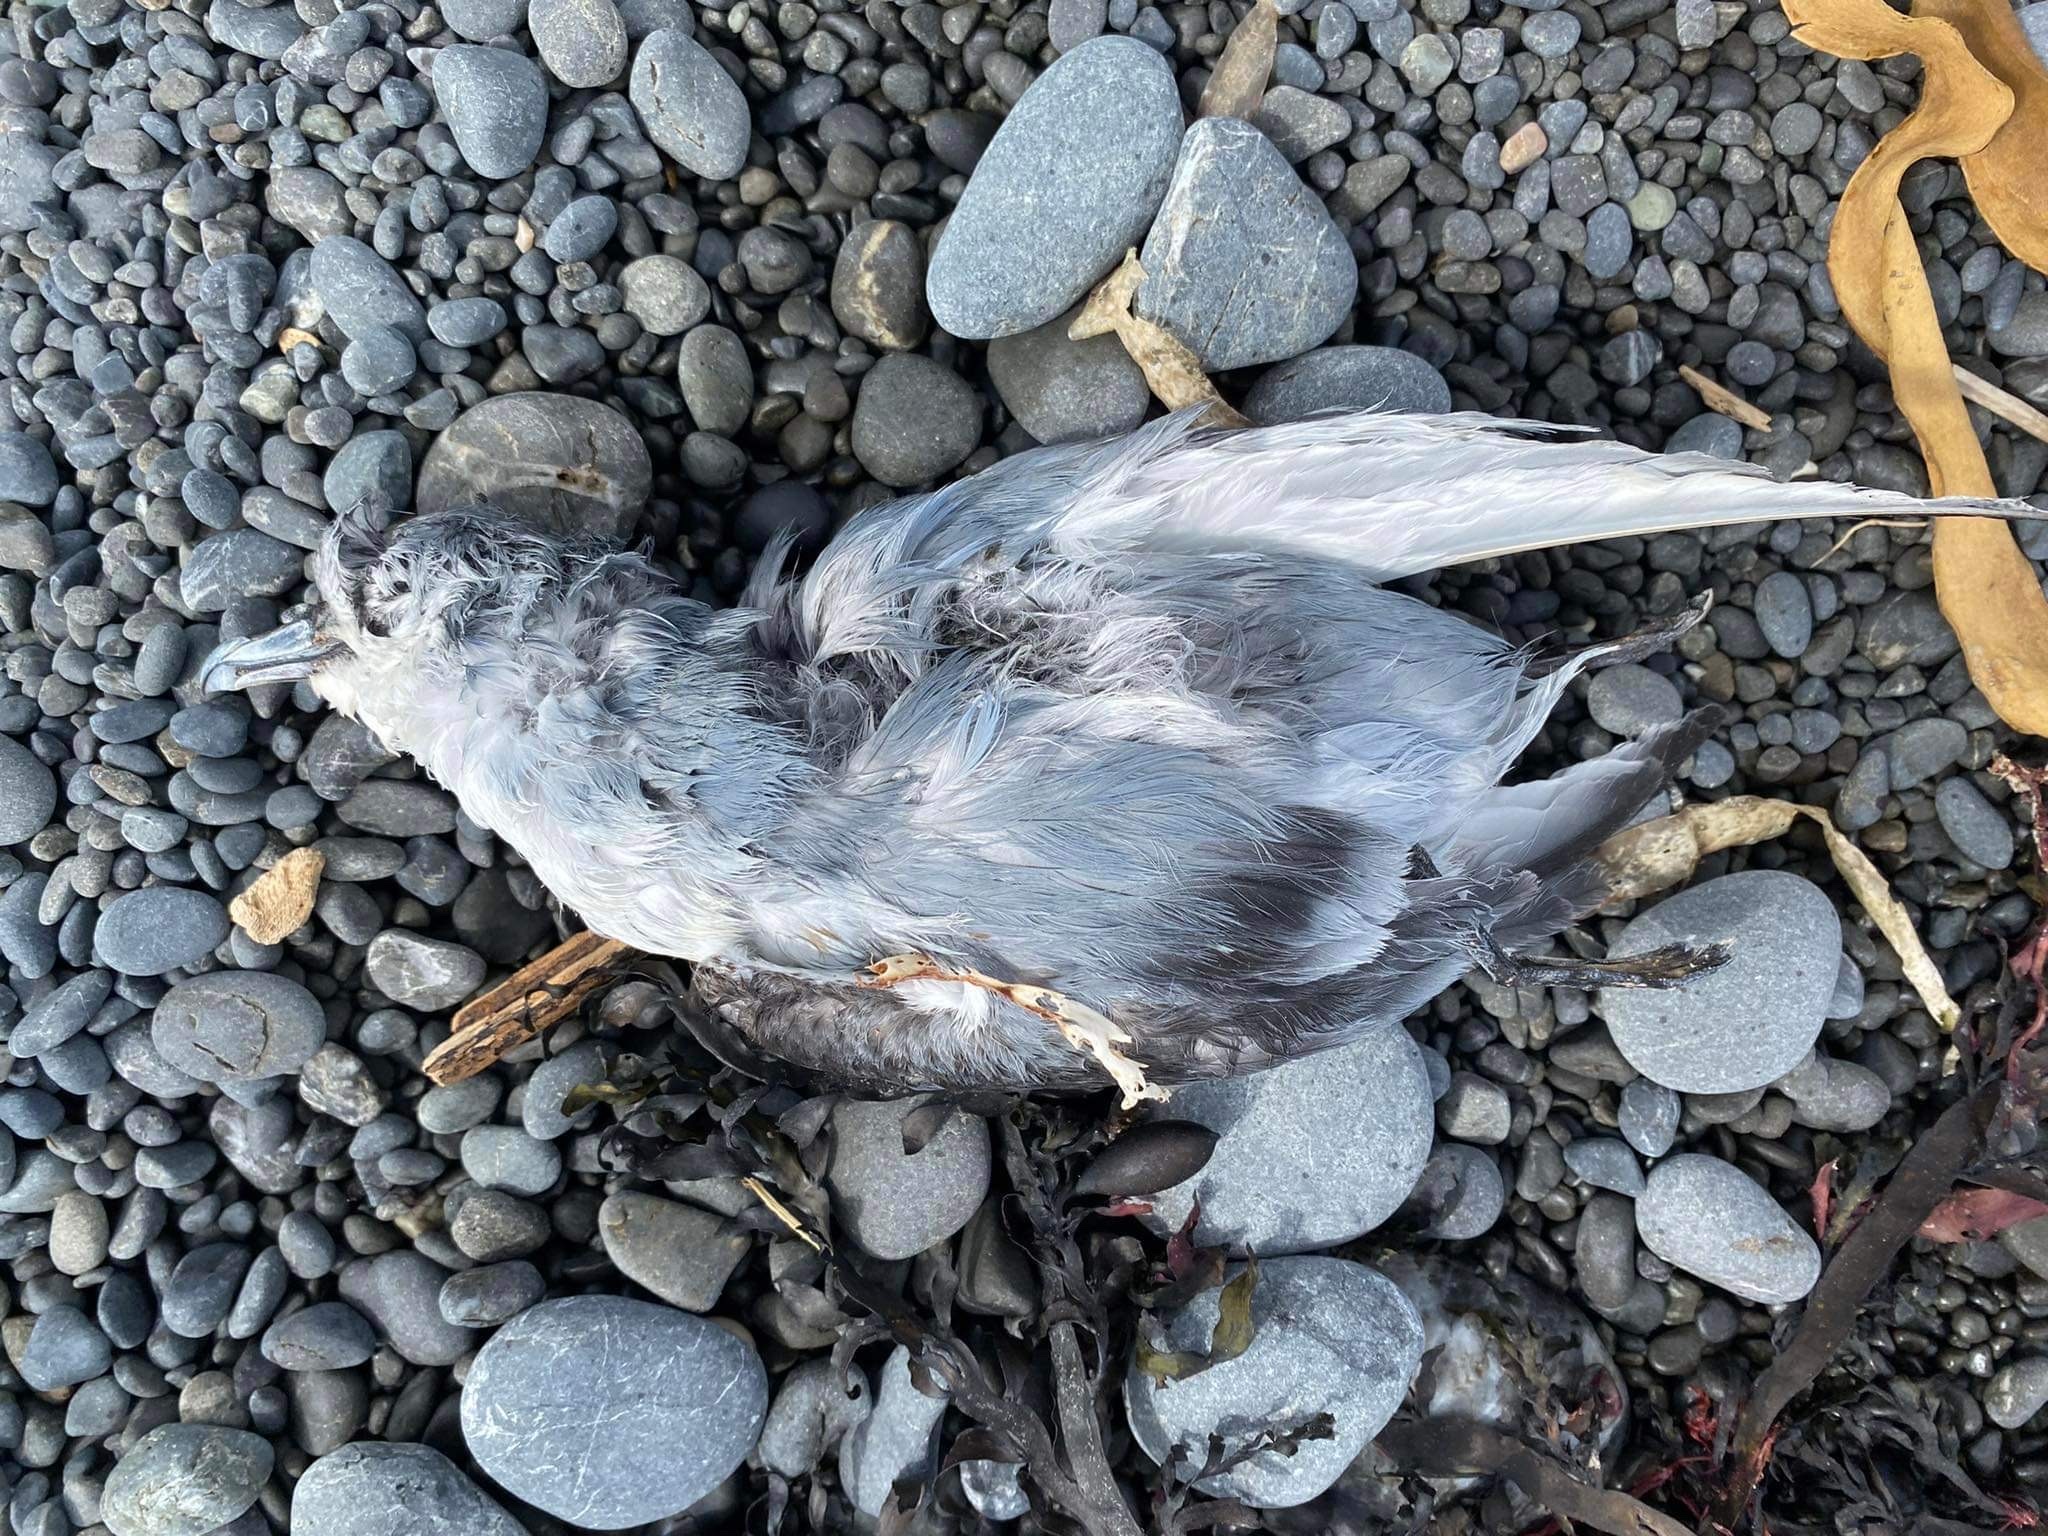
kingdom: Animalia
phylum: Chordata
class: Aves
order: Procellariiformes
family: Procellariidae
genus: Pachyptila
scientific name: Pachyptila turtur
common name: Fairy prion
